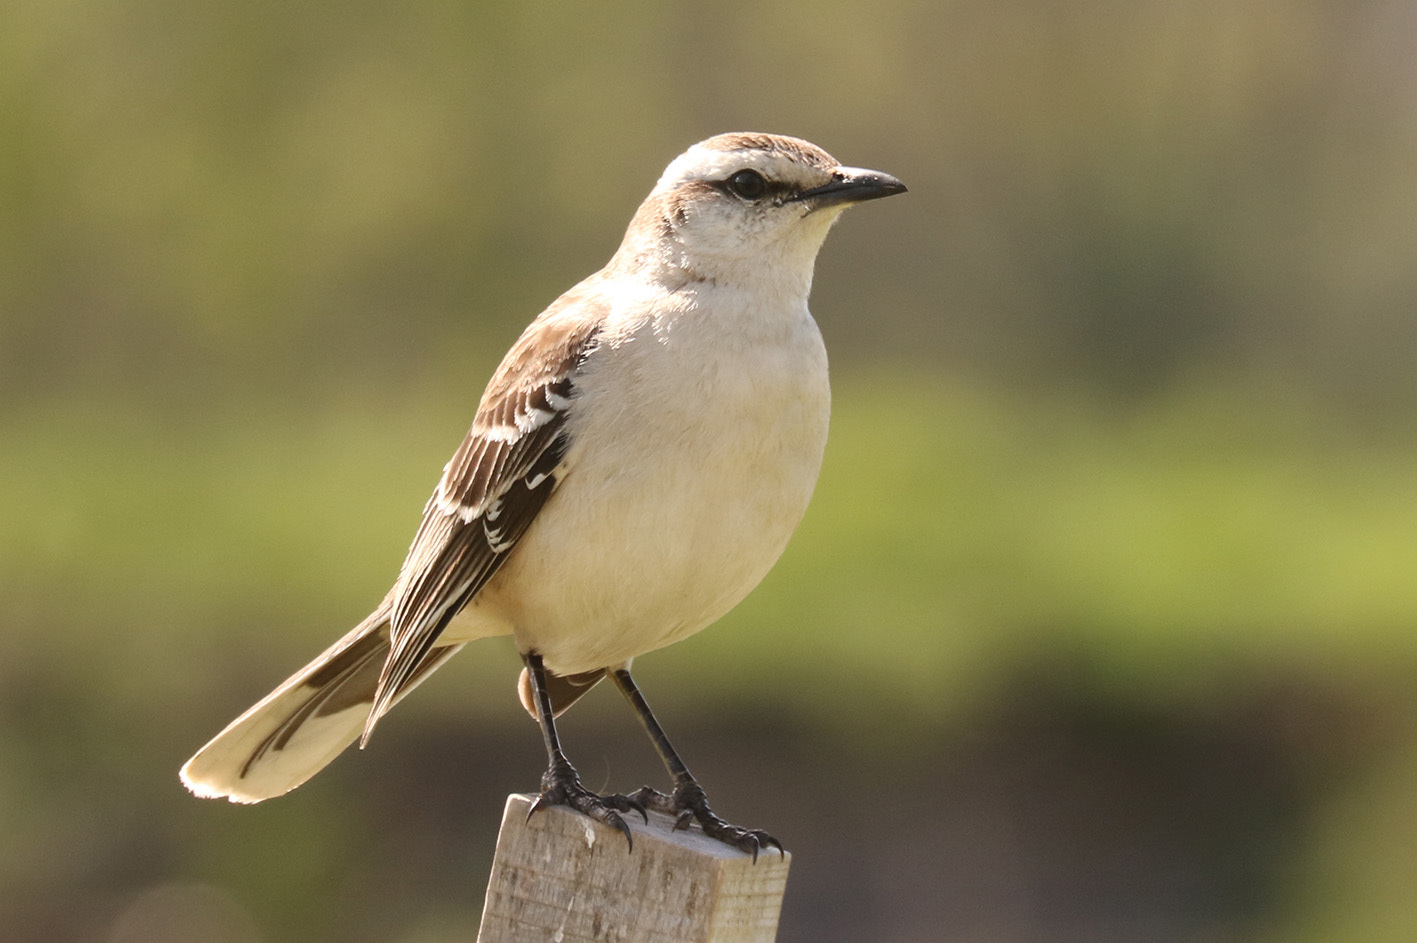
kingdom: Animalia
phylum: Chordata
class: Aves
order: Passeriformes
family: Mimidae
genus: Mimus
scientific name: Mimus saturninus
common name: Chalk-browed mockingbird
